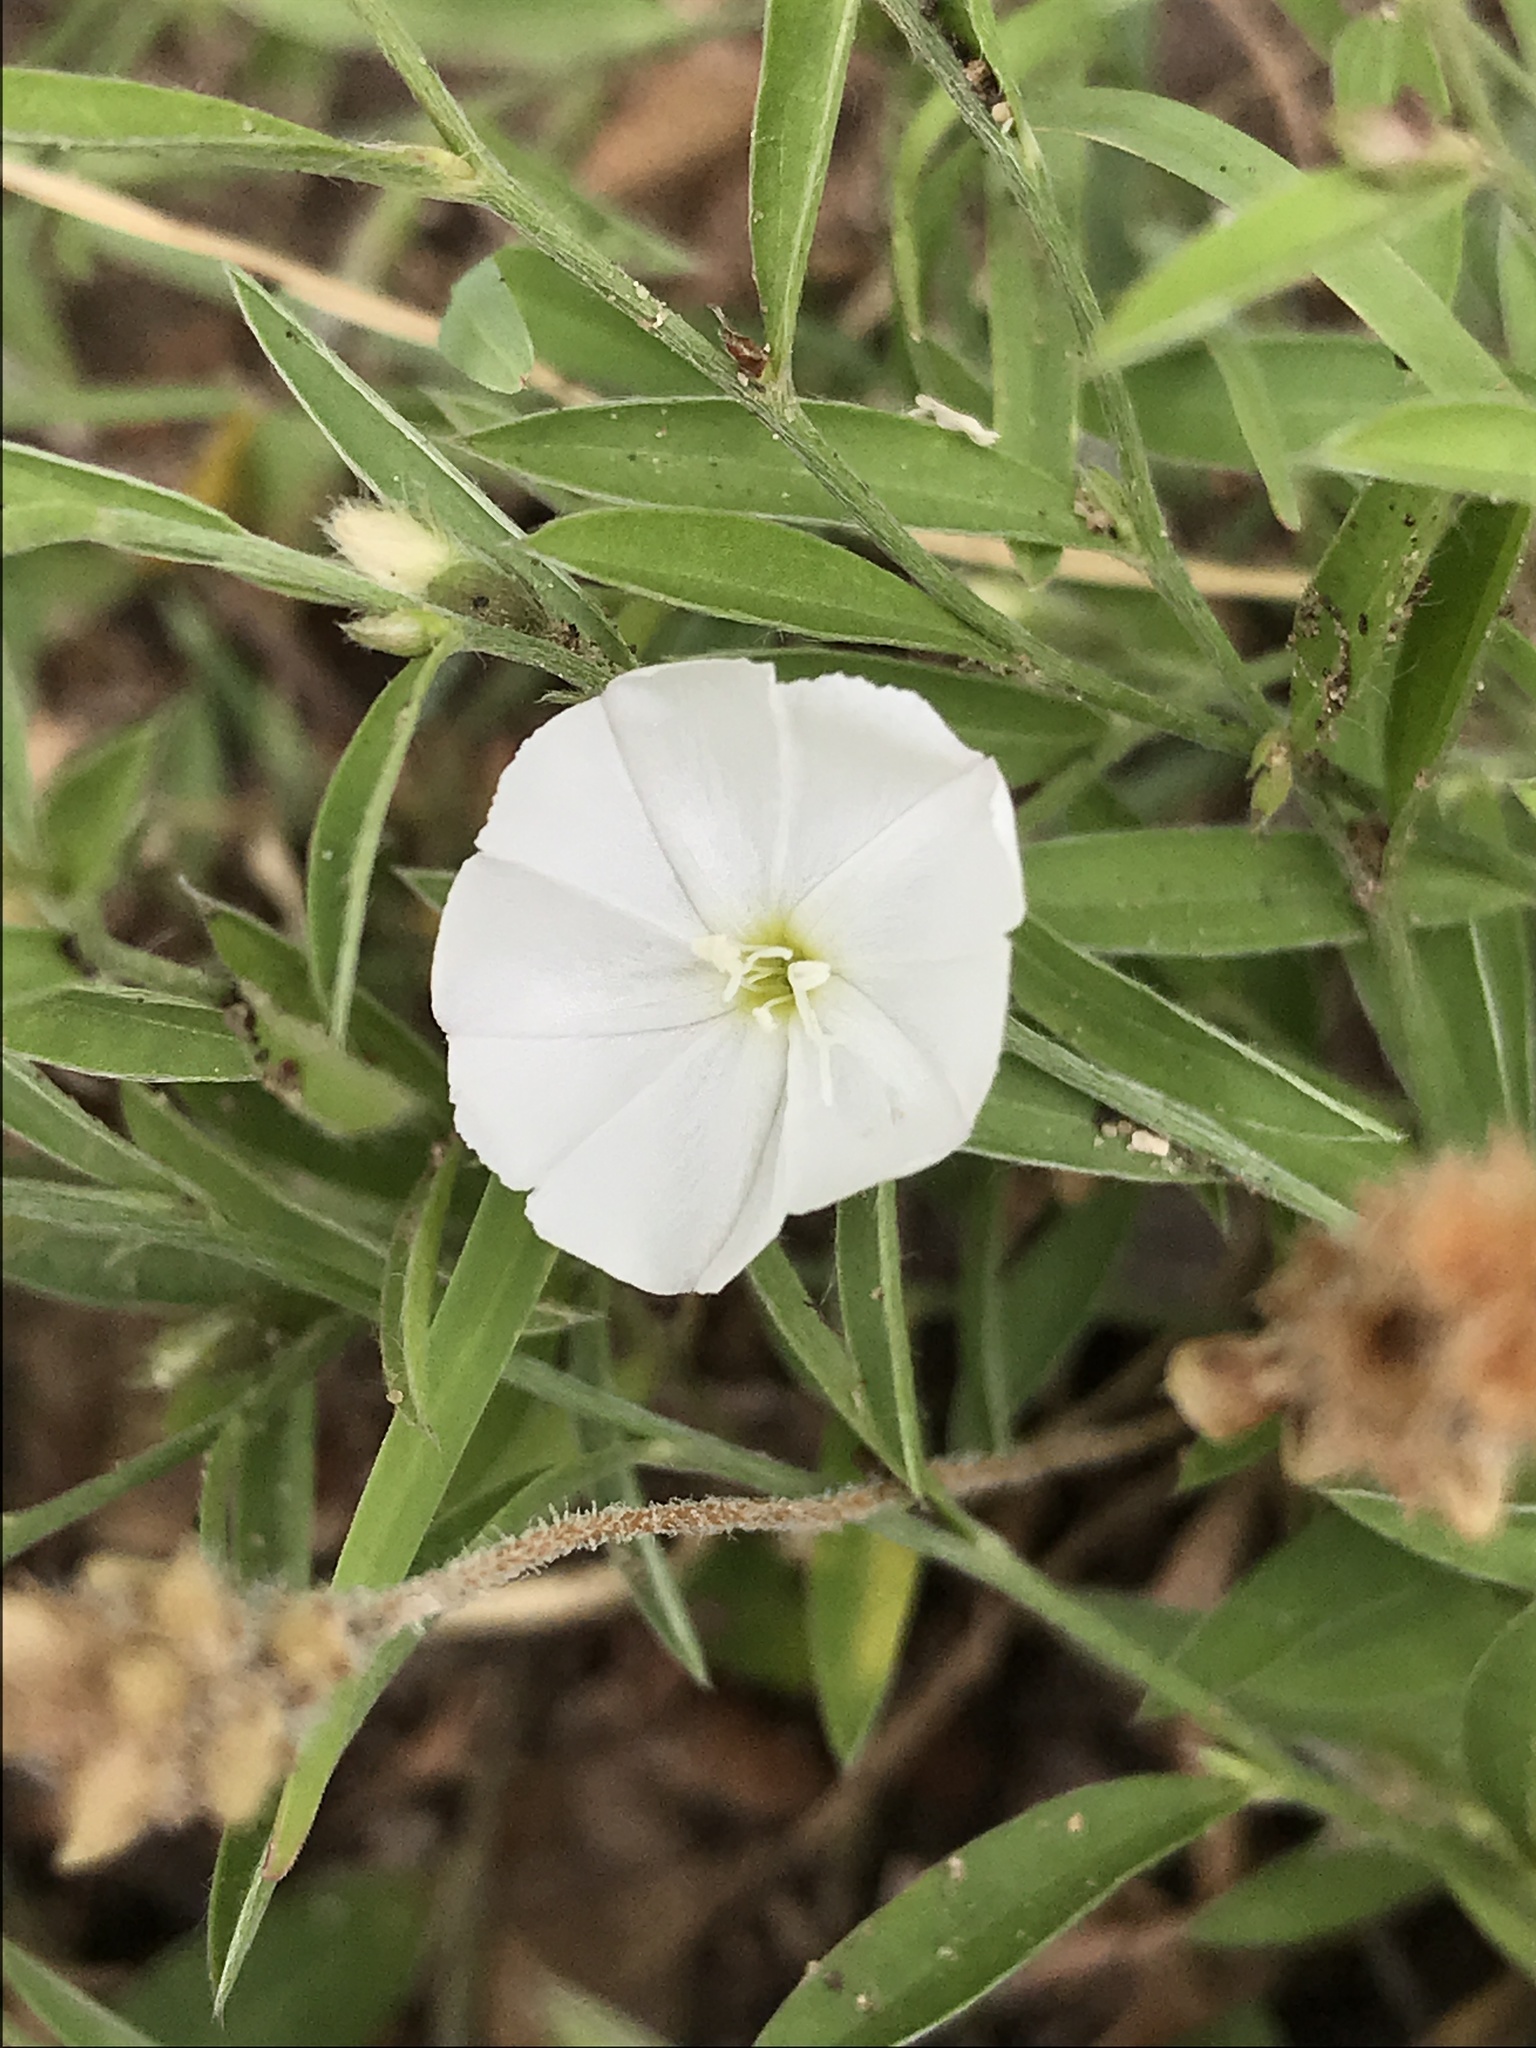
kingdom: Plantae
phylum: Tracheophyta
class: Magnoliopsida
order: Solanales
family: Convolvulaceae
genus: Evolvulus
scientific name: Evolvulus sericeus
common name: Blue dots
